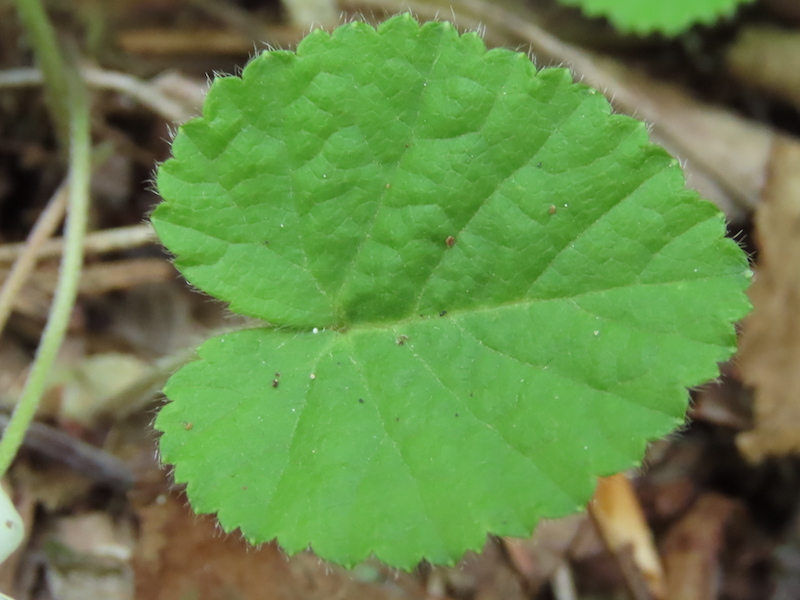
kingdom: Plantae
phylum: Tracheophyta
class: Magnoliopsida
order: Rosales
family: Rosaceae
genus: Dalibarda
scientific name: Dalibarda repens
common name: Dewdrop
